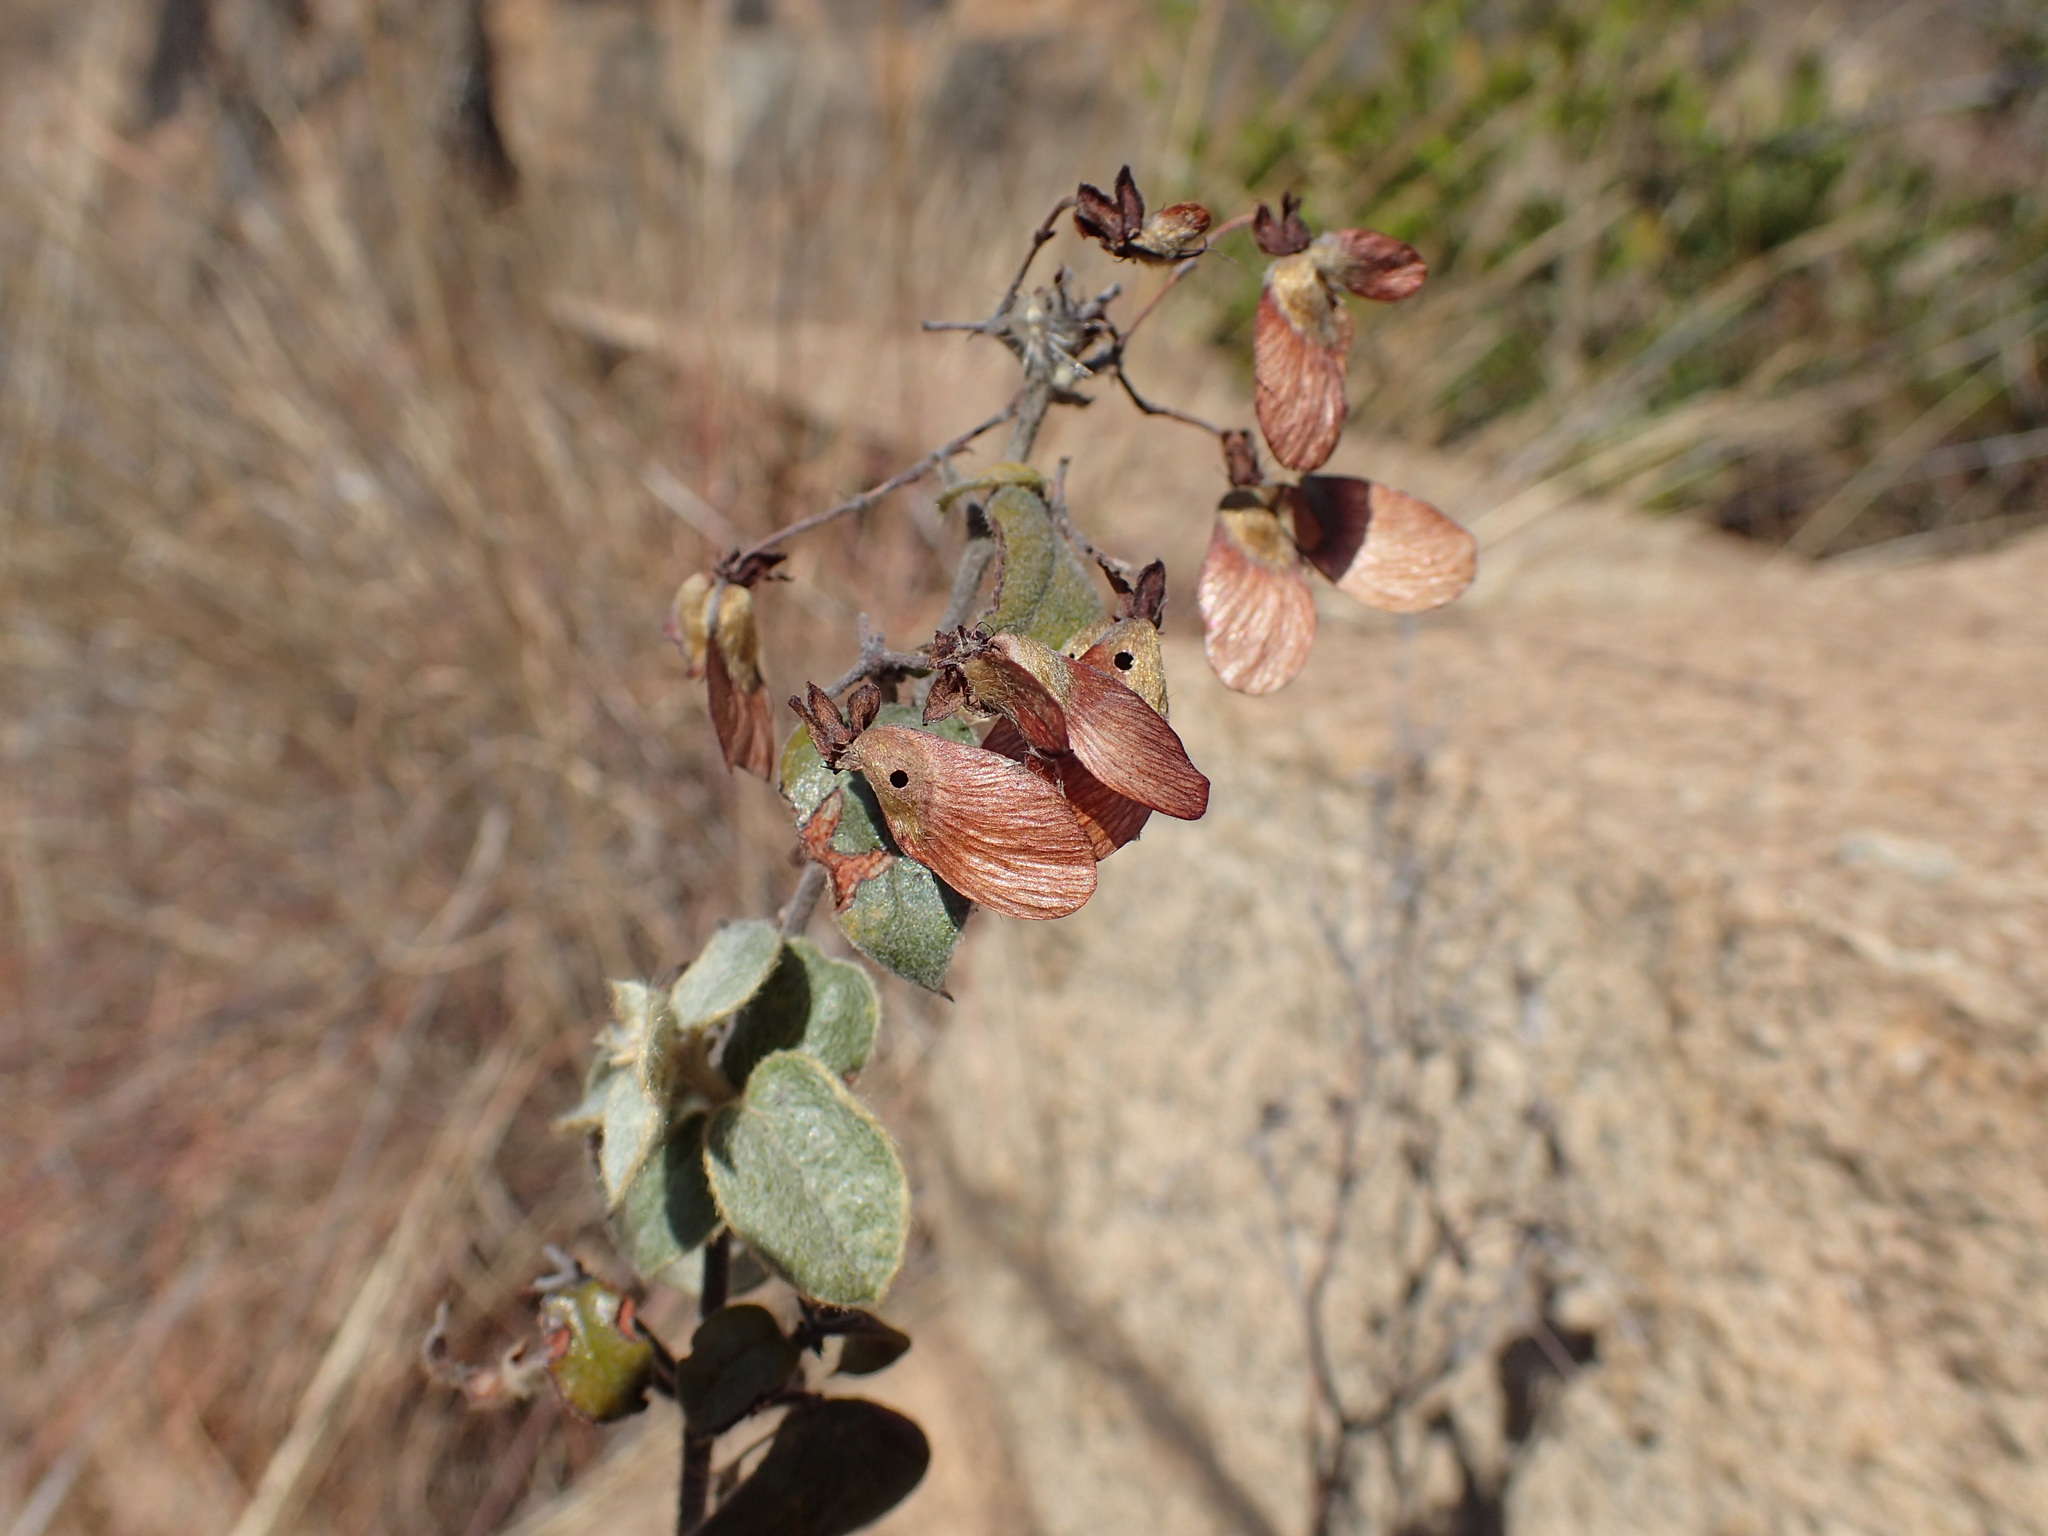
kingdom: Plantae
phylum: Tracheophyta
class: Magnoliopsida
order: Malpighiales
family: Malpighiaceae
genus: Sphedamnocarpus
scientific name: Sphedamnocarpus pruriens
